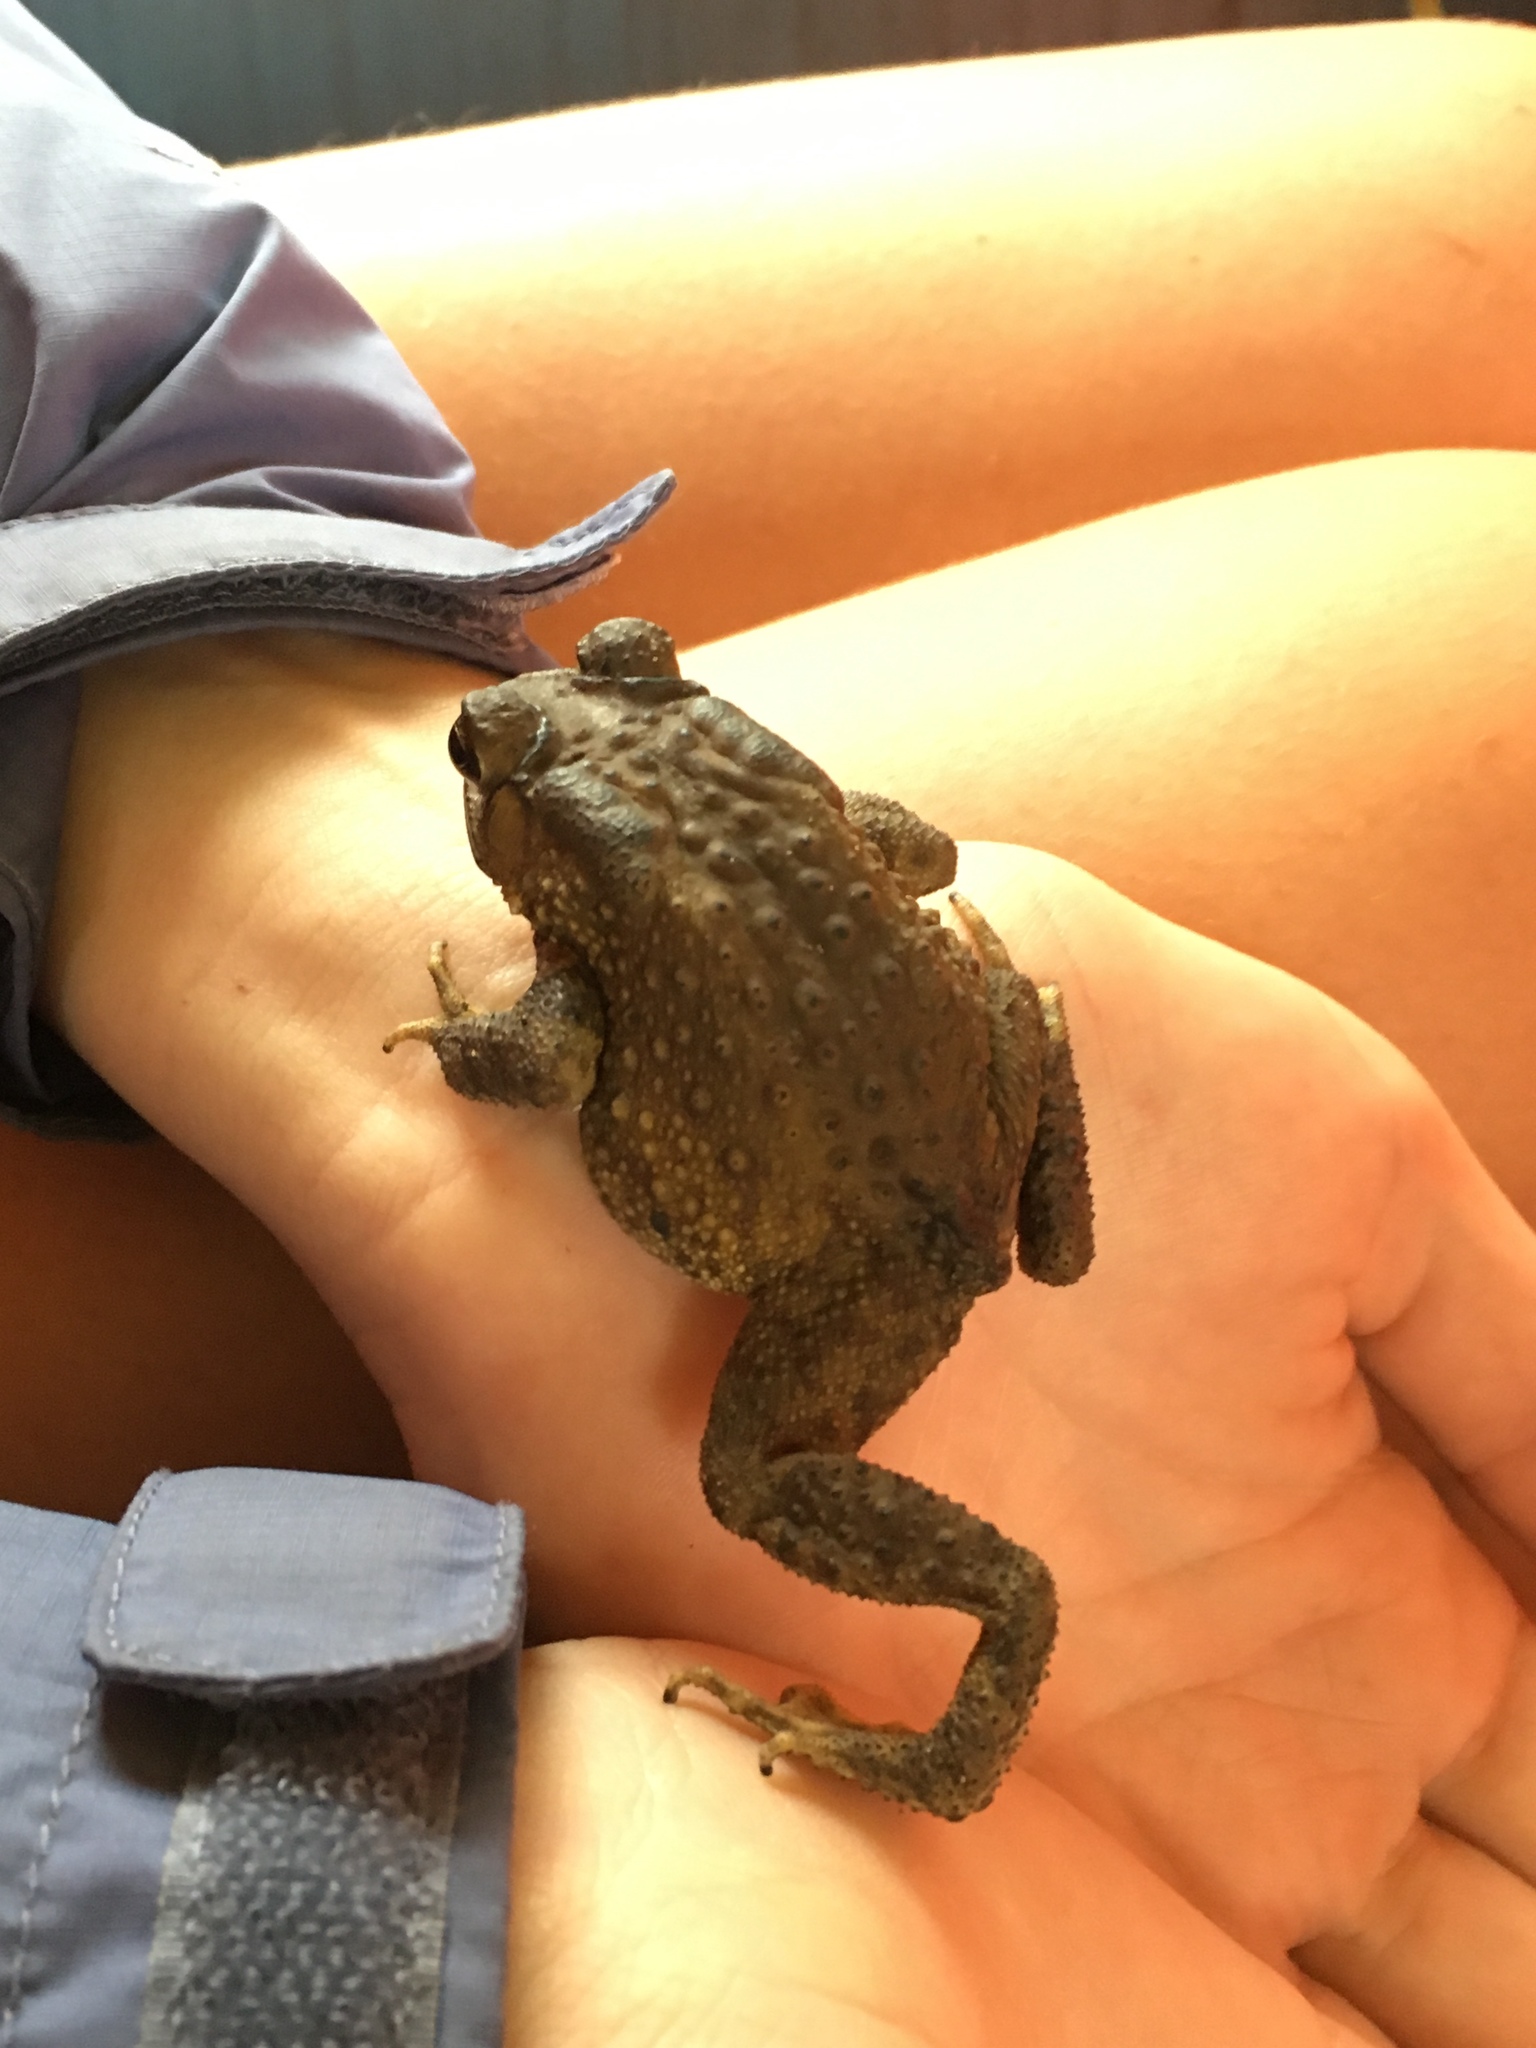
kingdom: Animalia
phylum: Chordata
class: Amphibia
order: Anura
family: Bufonidae
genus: Duttaphrynus
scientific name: Duttaphrynus melanostictus
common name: Common sunda toad
